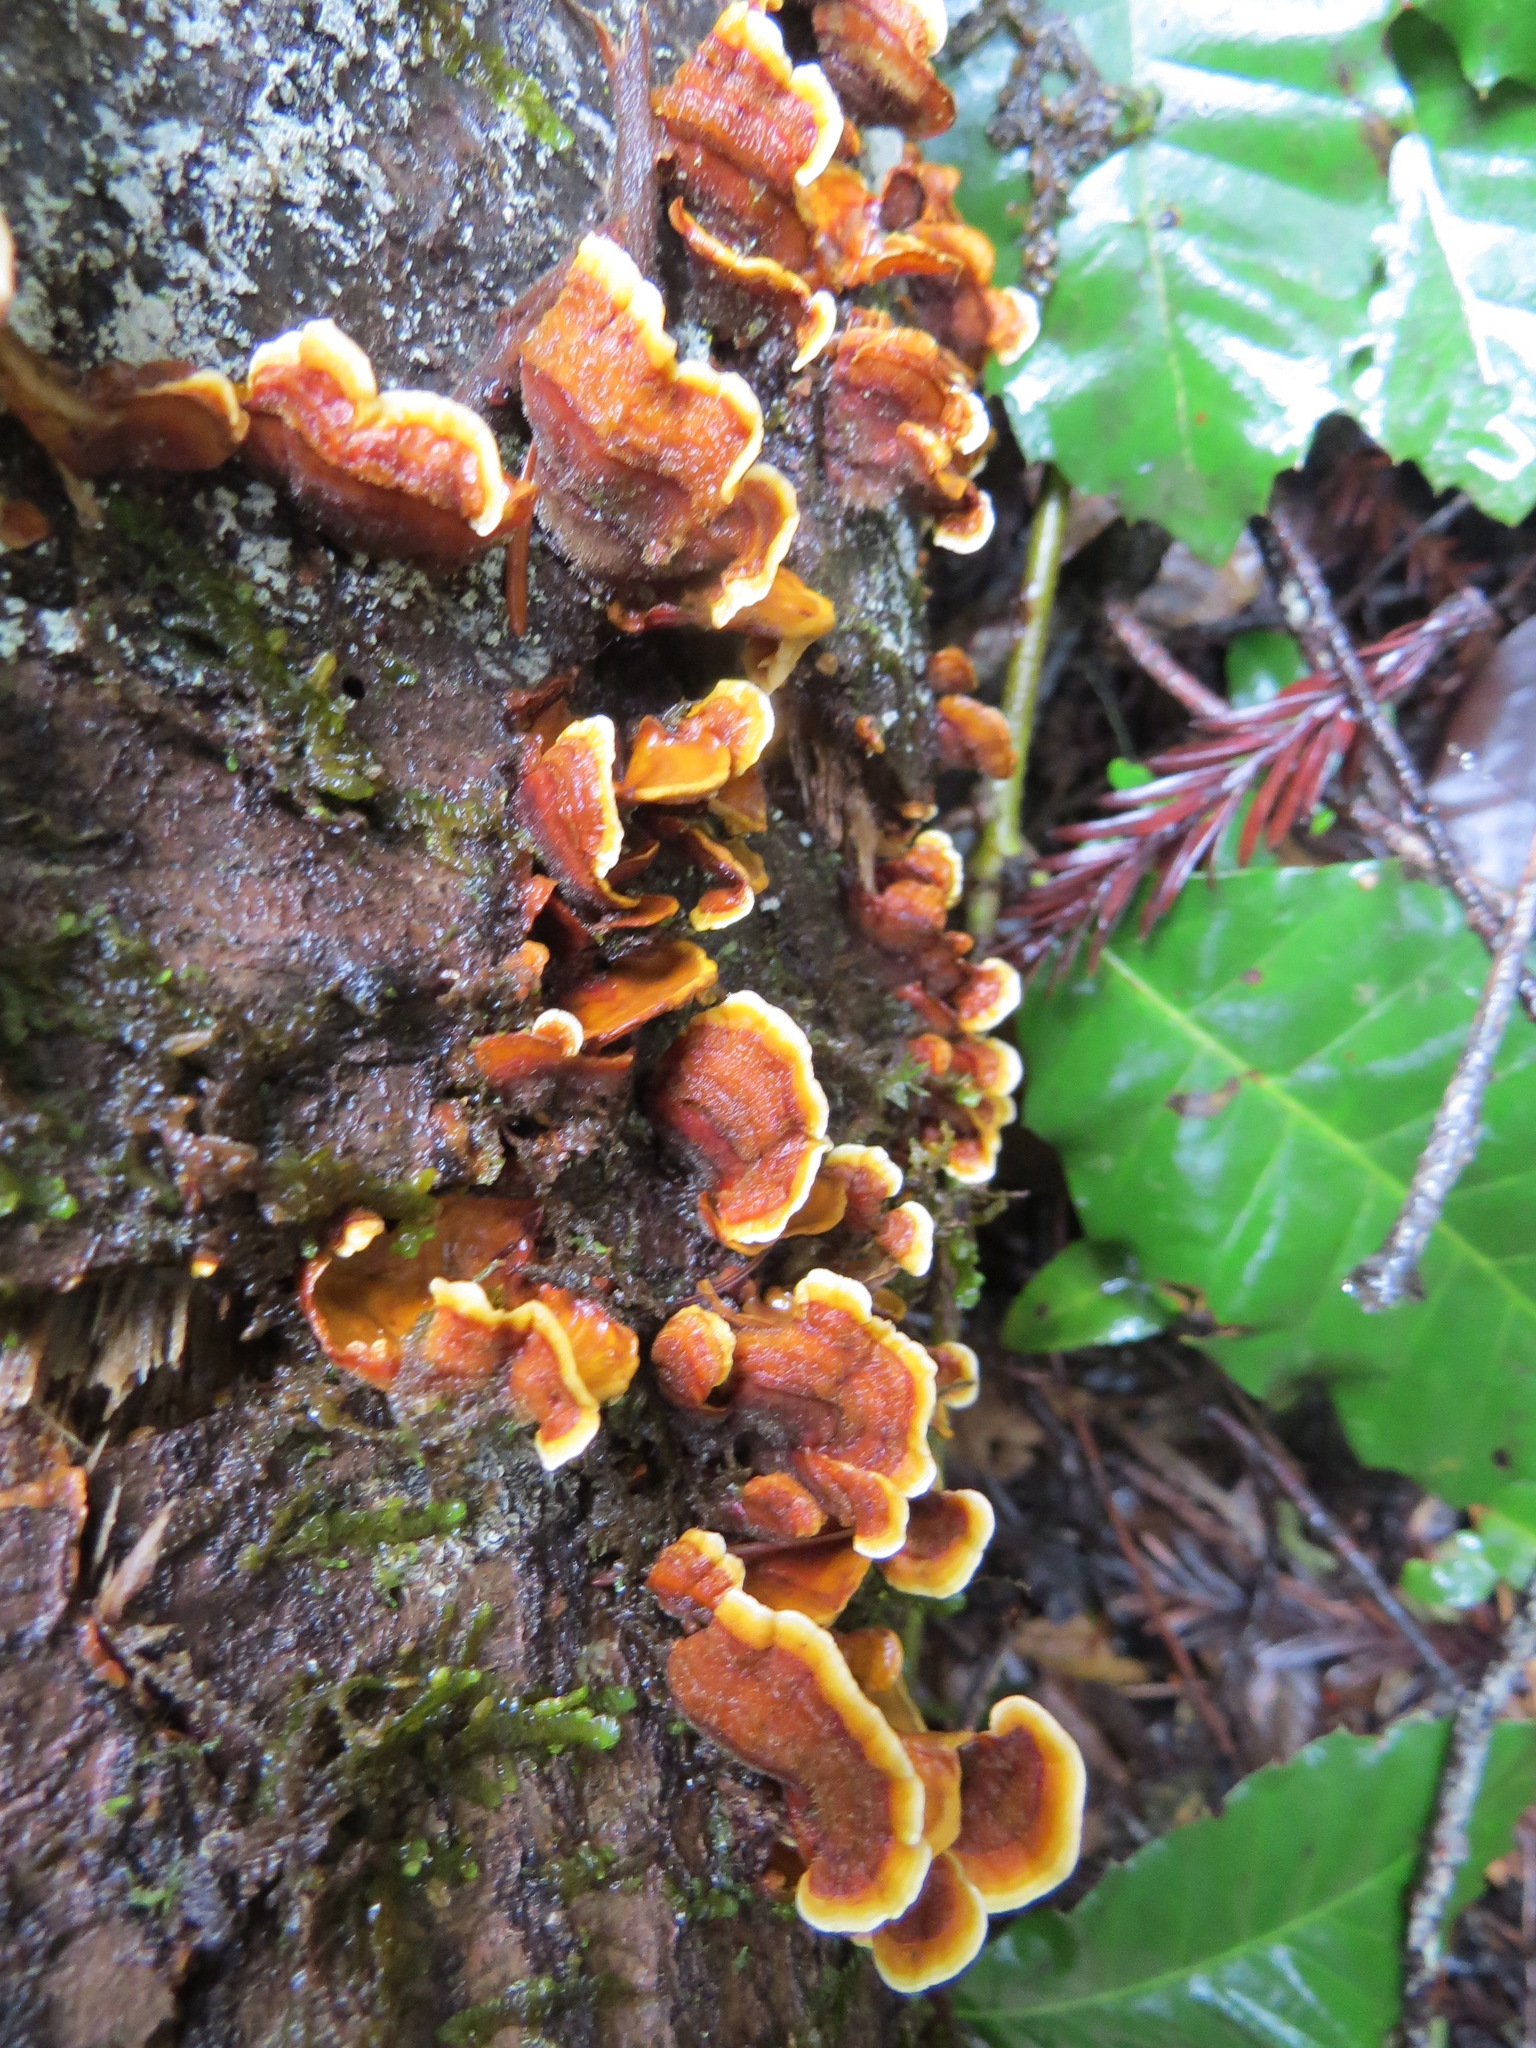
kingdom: Fungi
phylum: Basidiomycota
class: Agaricomycetes
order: Russulales
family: Stereaceae
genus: Stereum
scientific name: Stereum hirsutum
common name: Hairy curtain crust
